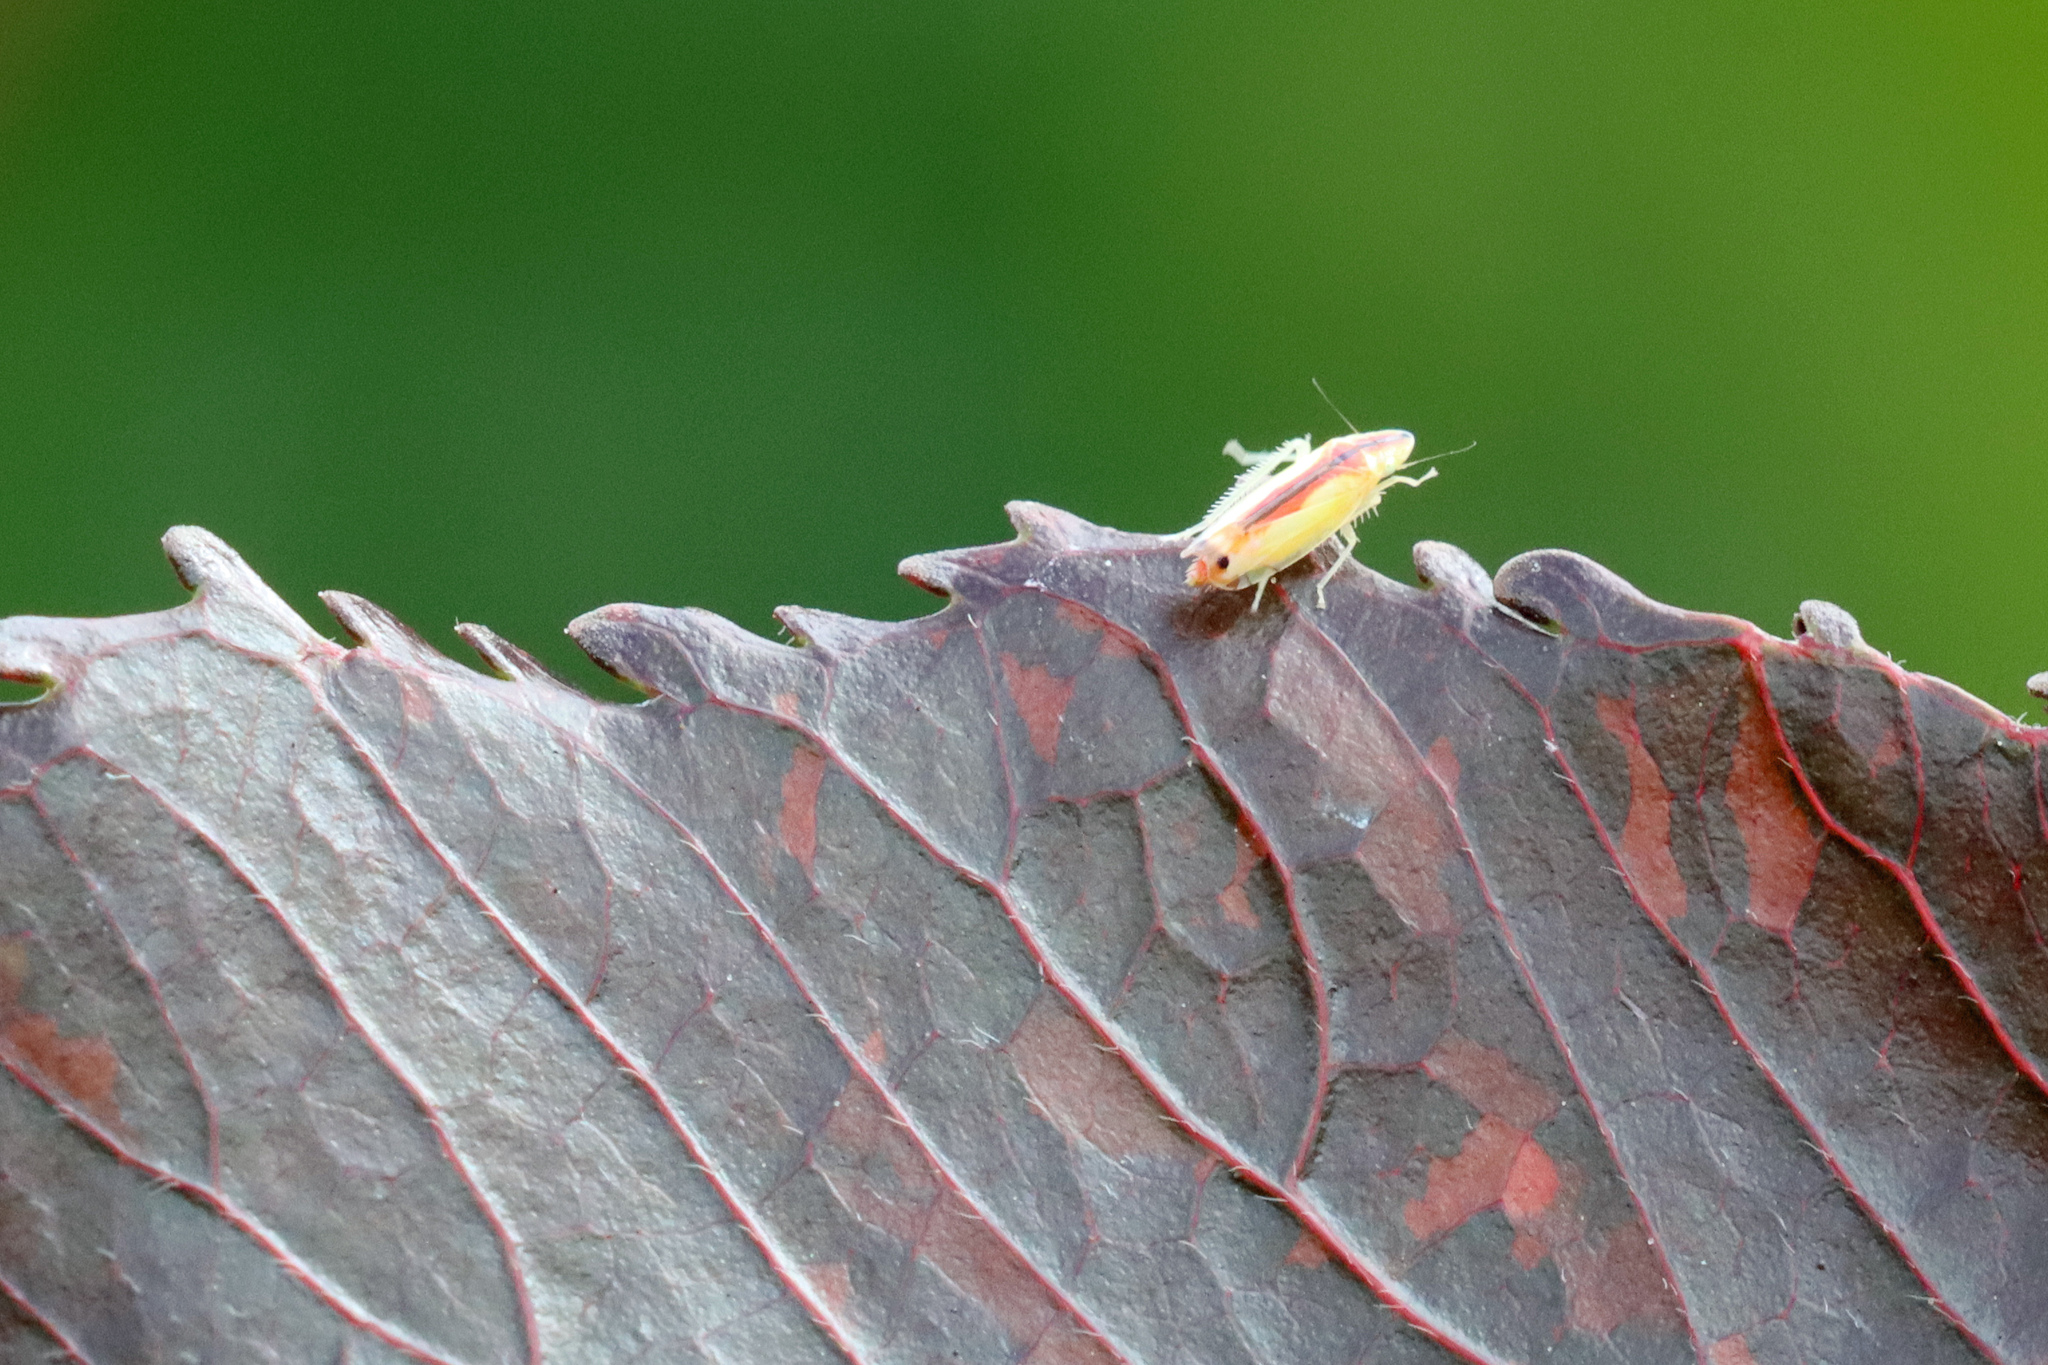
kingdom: Animalia
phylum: Arthropoda
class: Insecta
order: Hemiptera
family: Cicadellidae
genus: Sophonia
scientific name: Sophonia orientalis
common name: Two-spotted leafhopper
